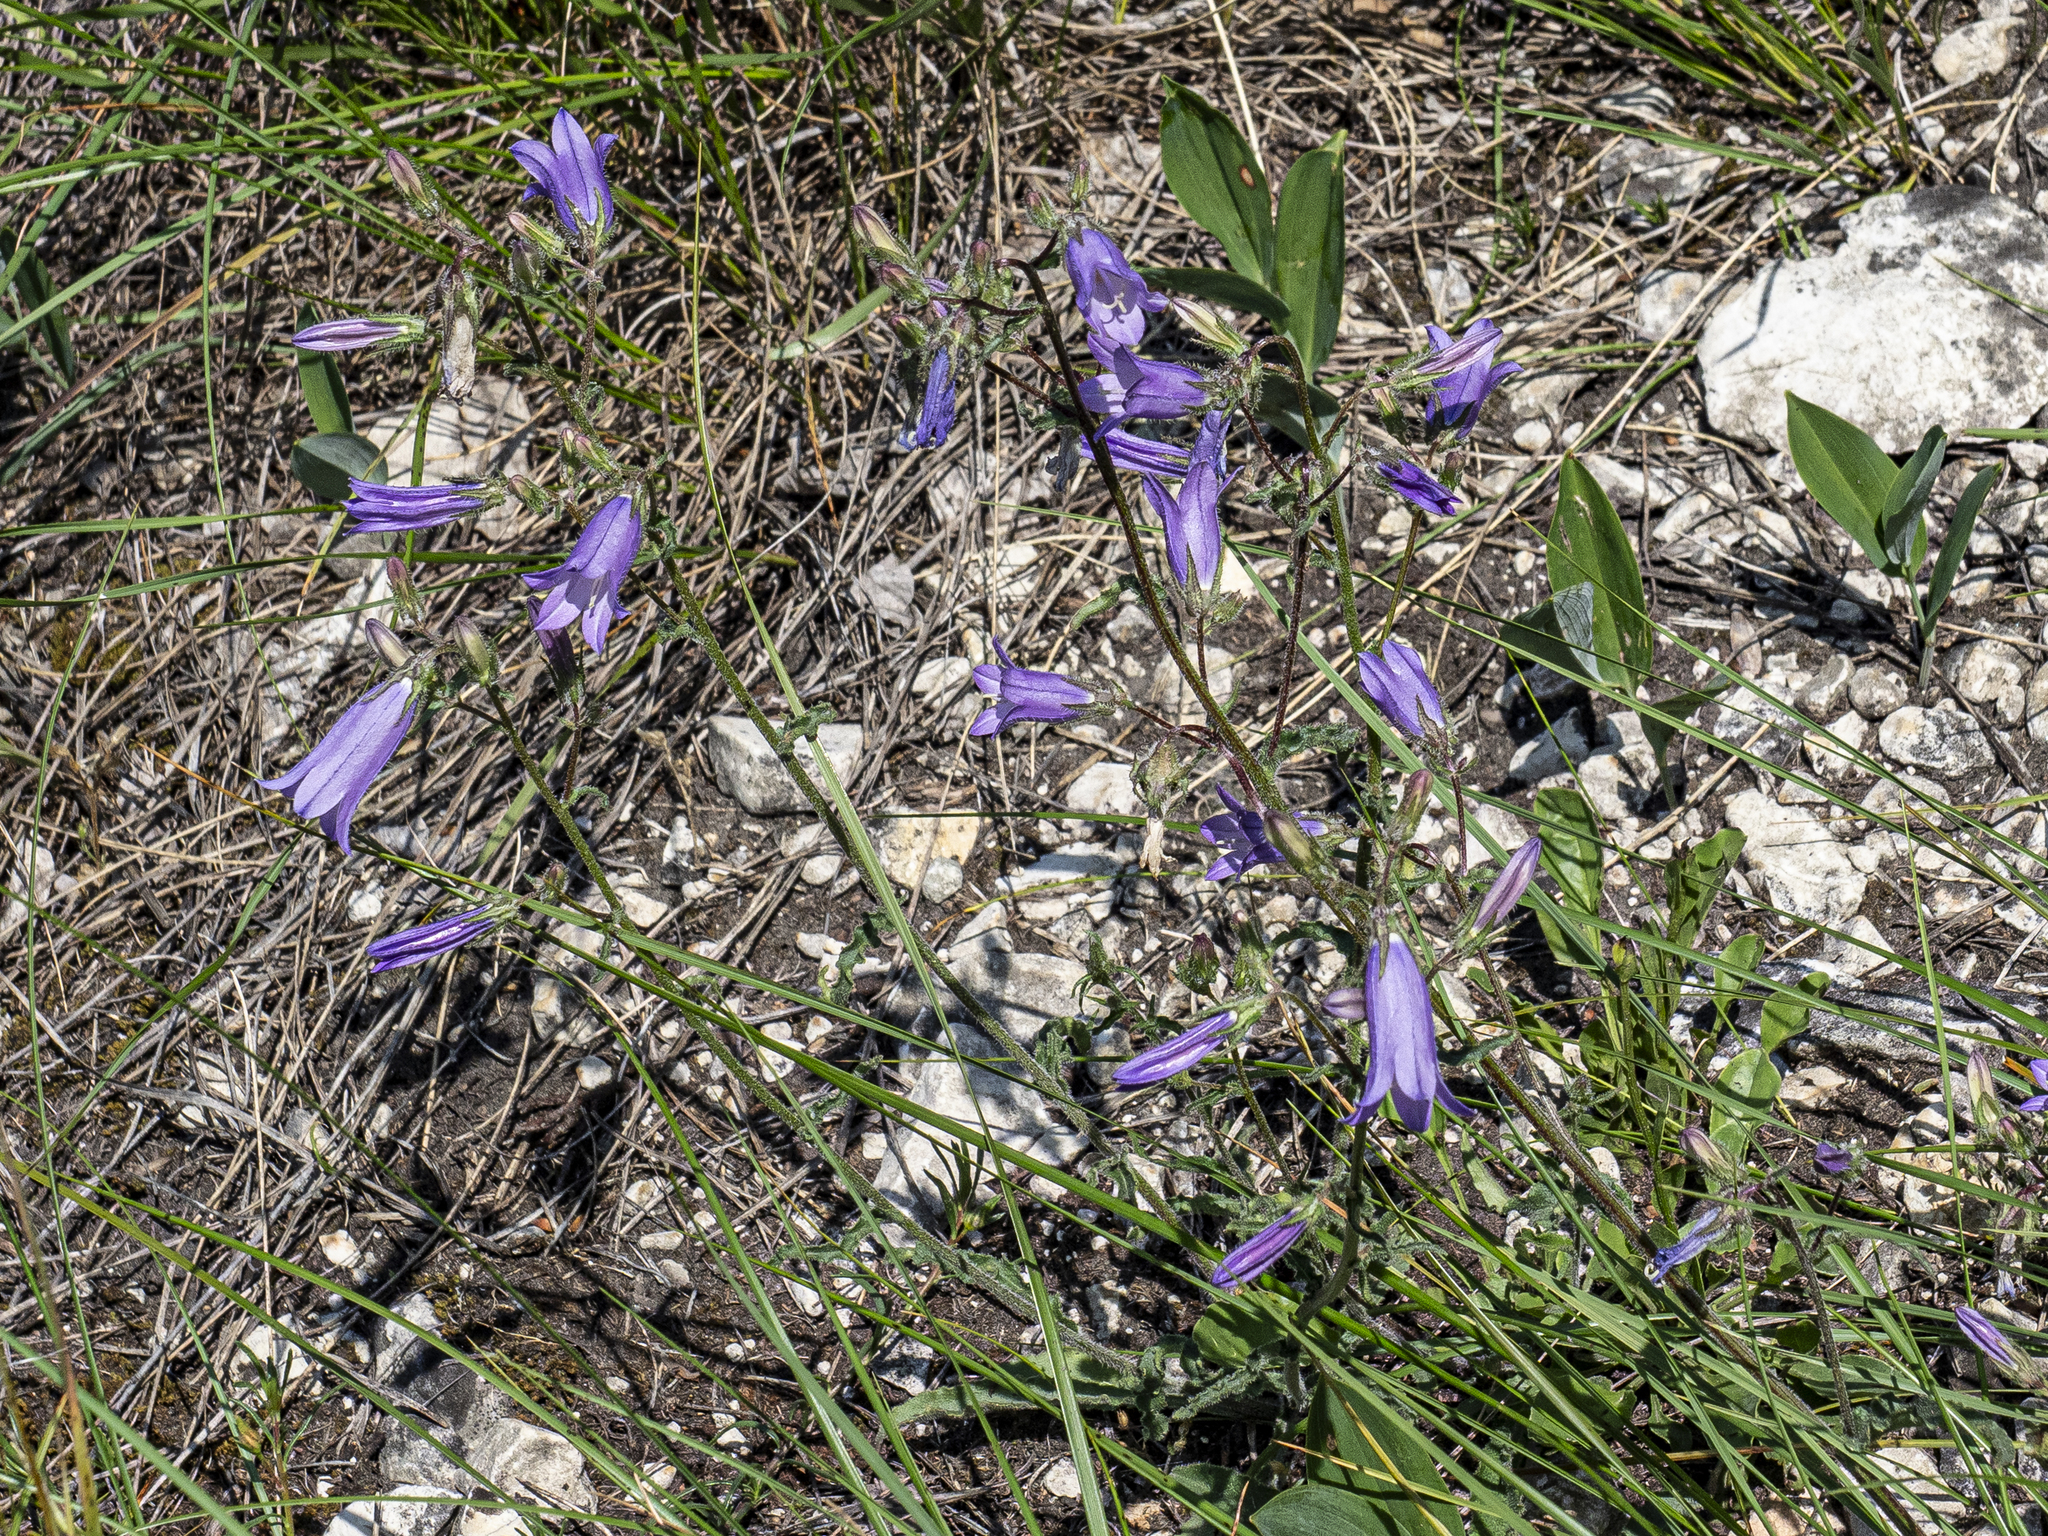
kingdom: Plantae
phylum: Tracheophyta
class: Magnoliopsida
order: Asterales
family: Campanulaceae
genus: Campanula
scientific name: Campanula sibirica
